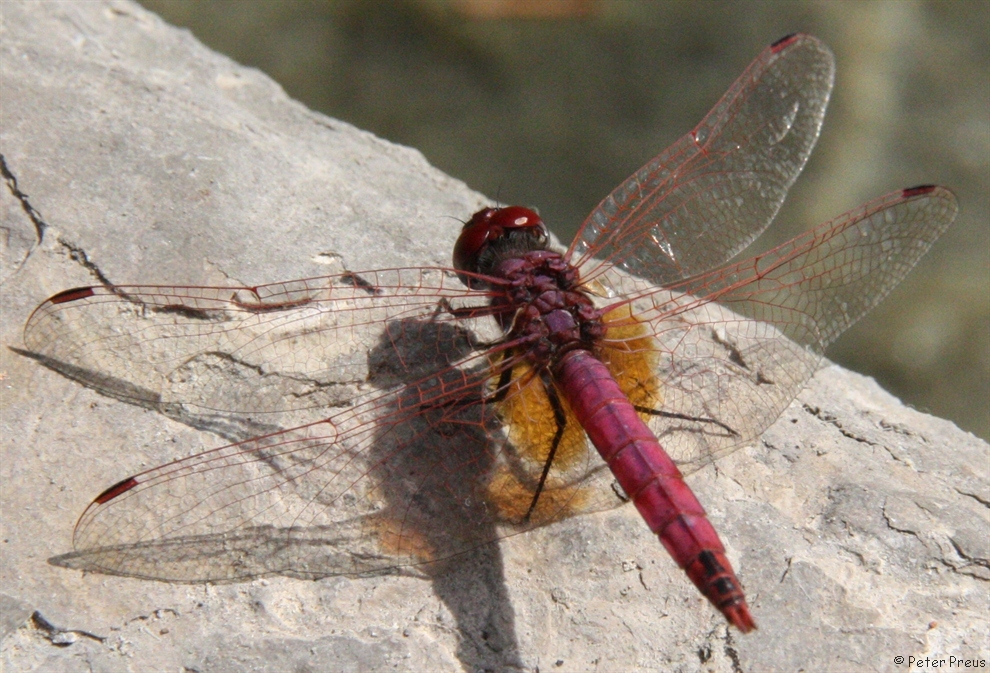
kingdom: Animalia
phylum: Arthropoda
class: Insecta
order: Odonata
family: Libellulidae
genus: Trithemis
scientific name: Trithemis annulata
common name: Violet dropwing
